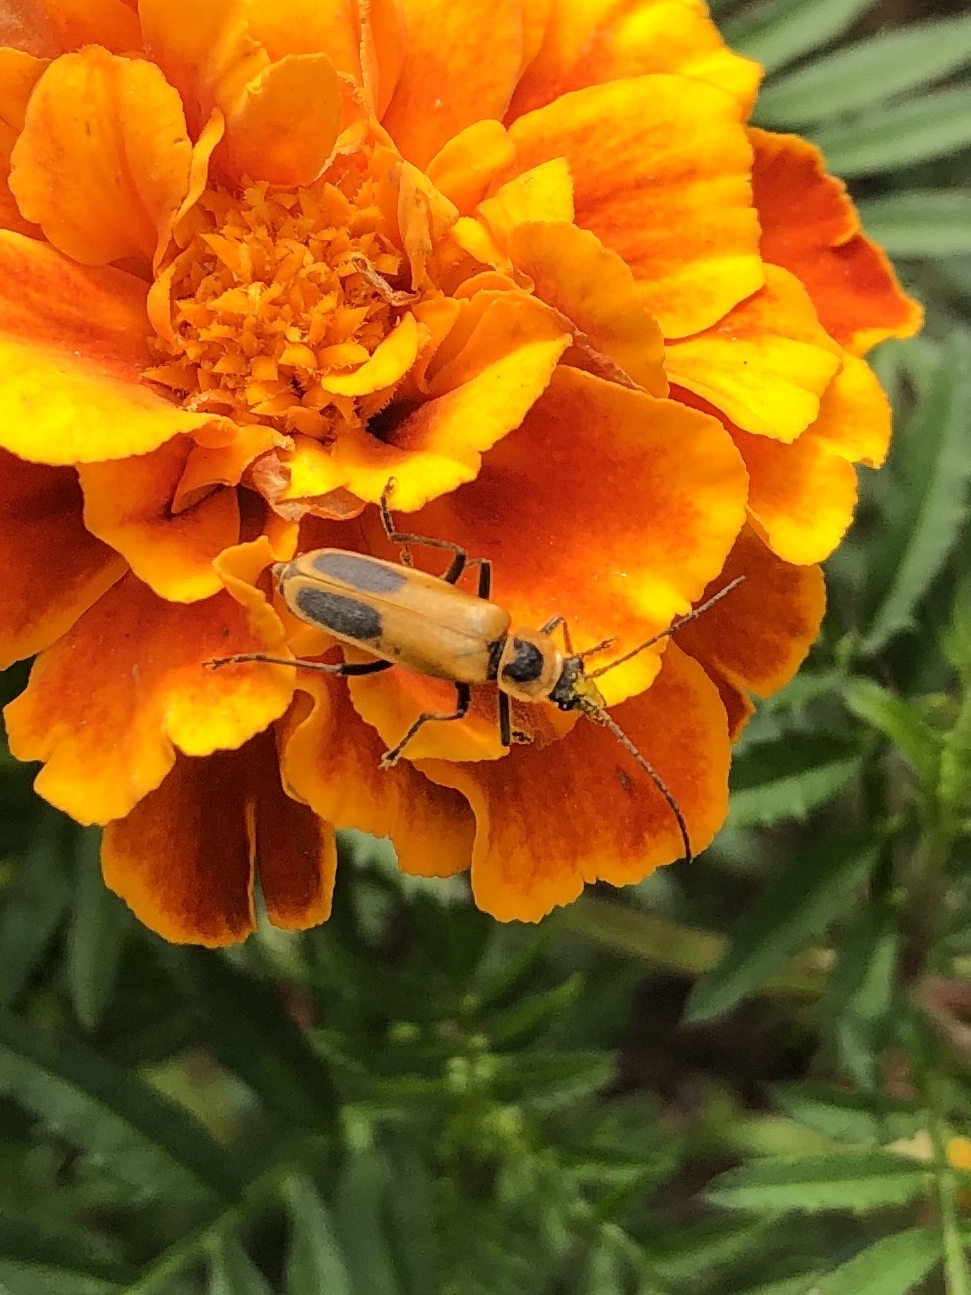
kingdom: Animalia
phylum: Arthropoda
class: Insecta
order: Coleoptera
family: Cantharidae
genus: Chauliognathus
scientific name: Chauliognathus pensylvanicus
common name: Goldenrod soldier beetle
